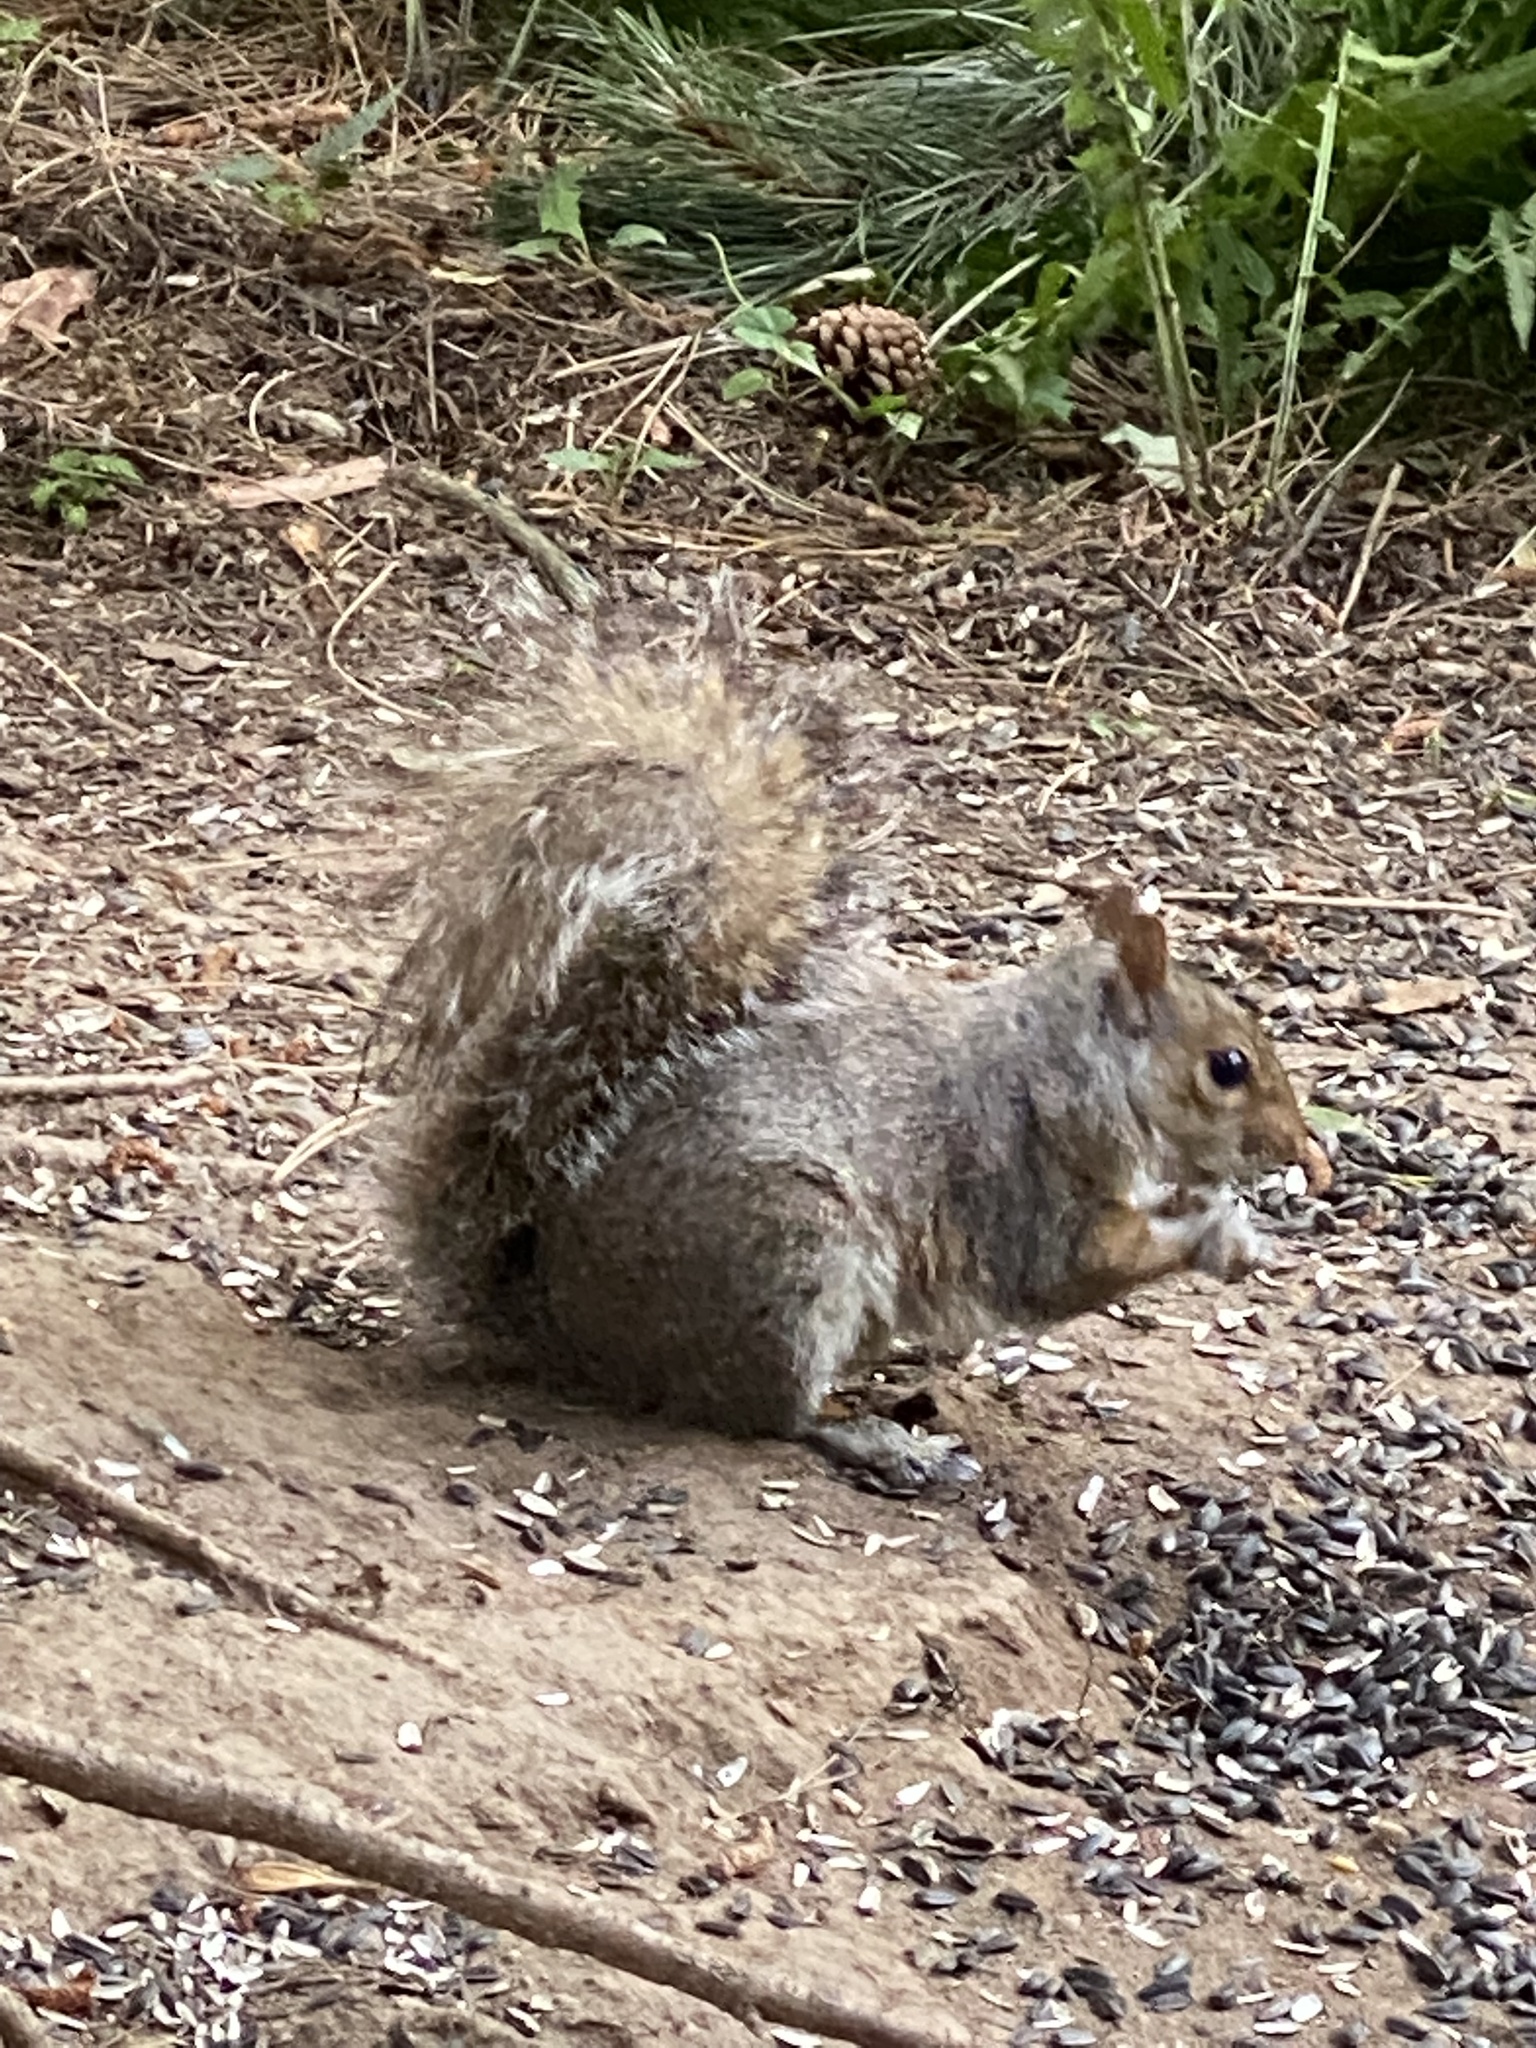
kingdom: Animalia
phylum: Chordata
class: Mammalia
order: Rodentia
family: Sciuridae
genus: Sciurus
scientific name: Sciurus carolinensis
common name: Eastern gray squirrel
